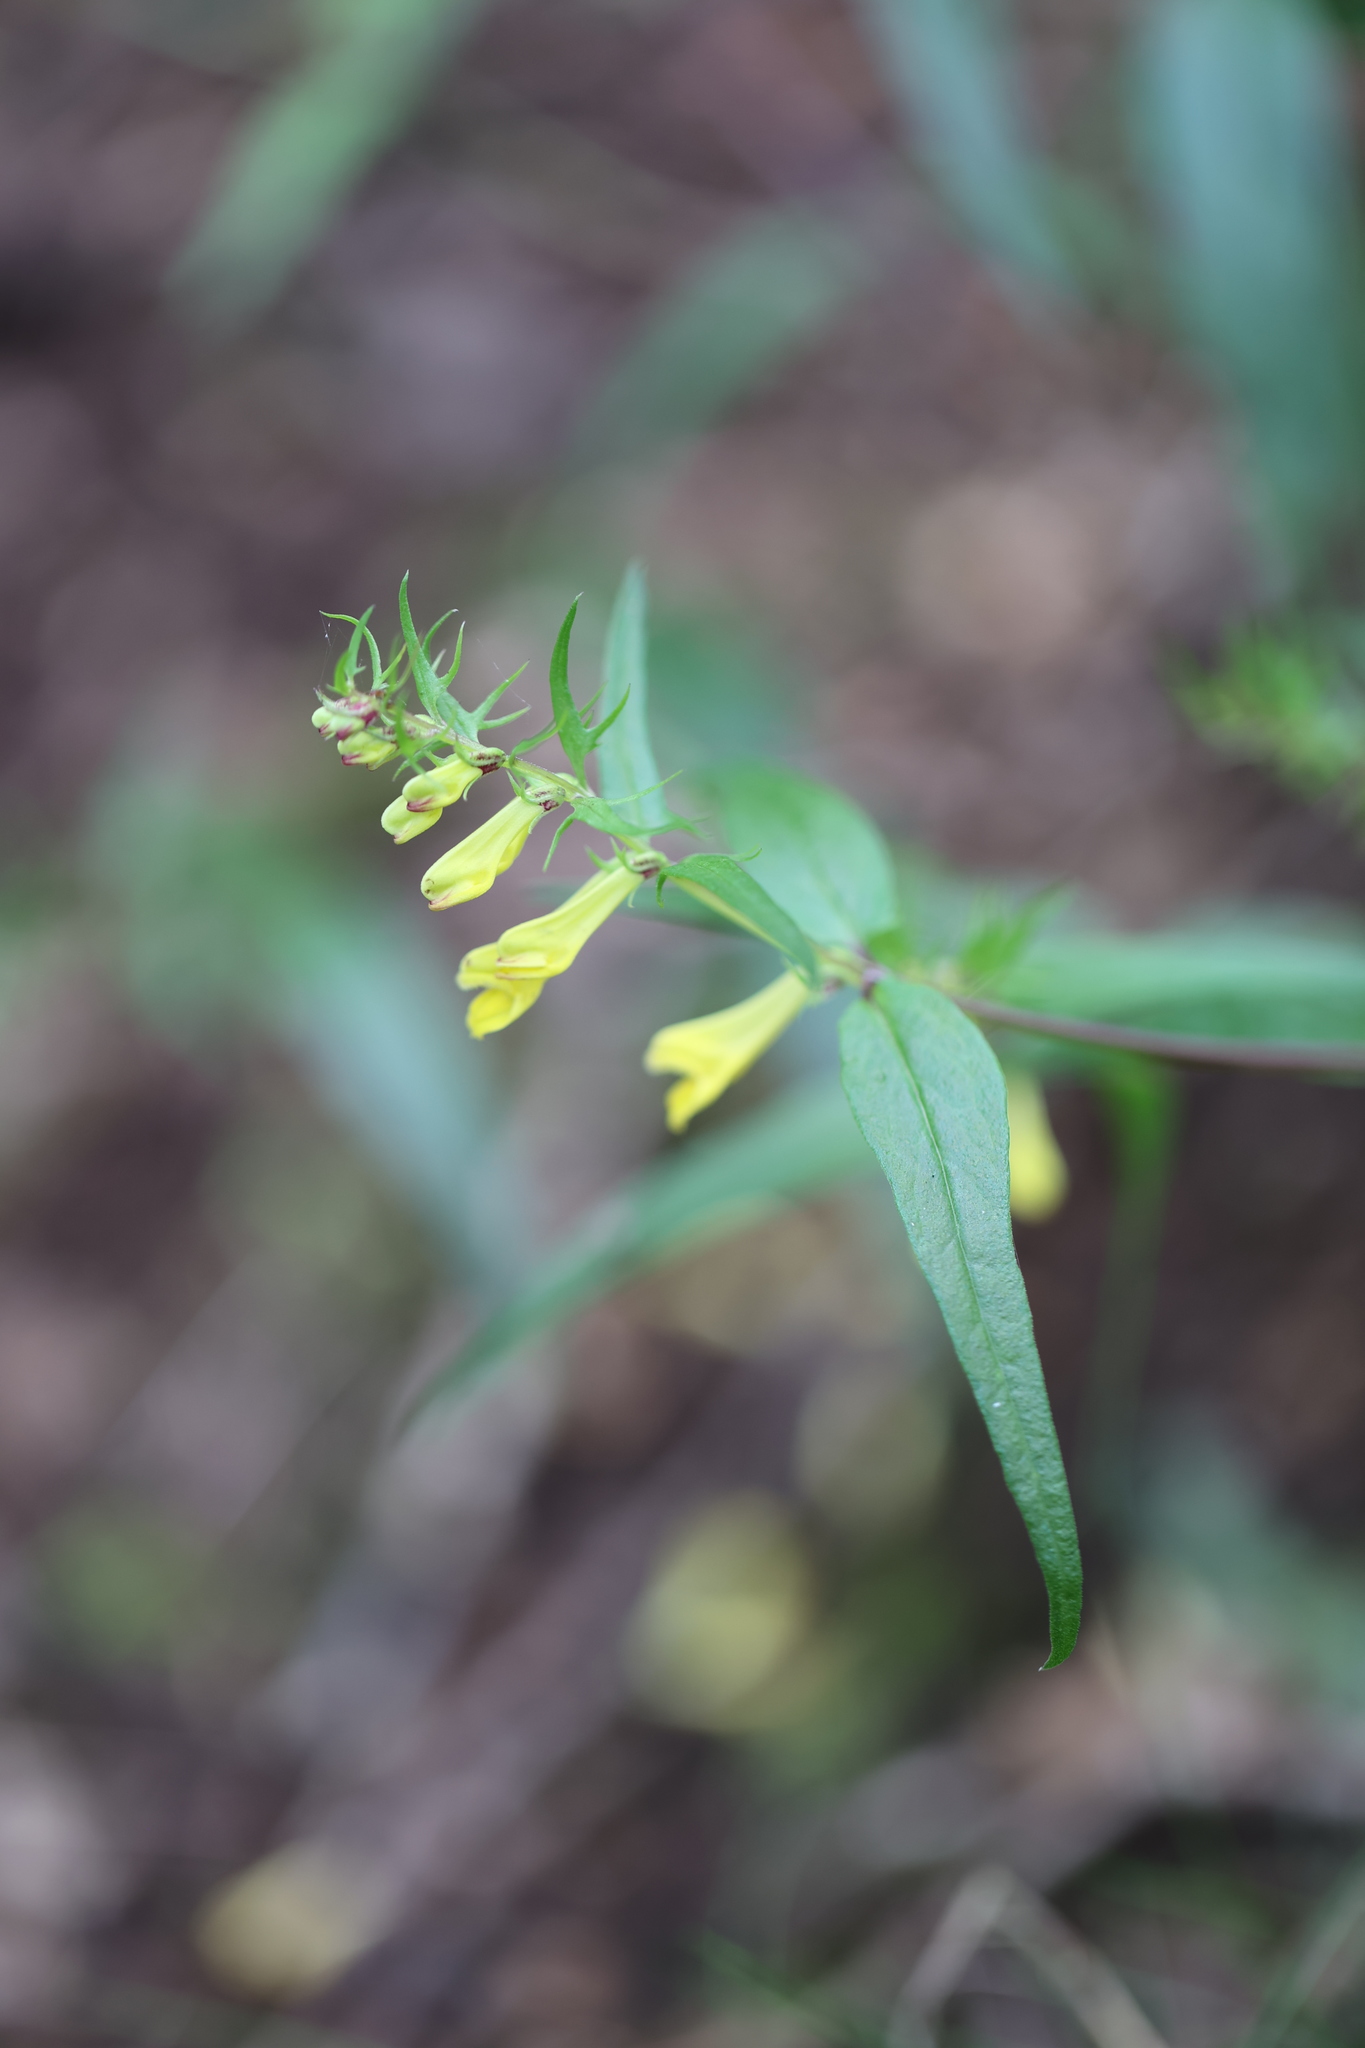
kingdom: Plantae
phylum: Tracheophyta
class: Magnoliopsida
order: Lamiales
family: Orobanchaceae
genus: Melampyrum
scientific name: Melampyrum pratense
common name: Common cow-wheat
